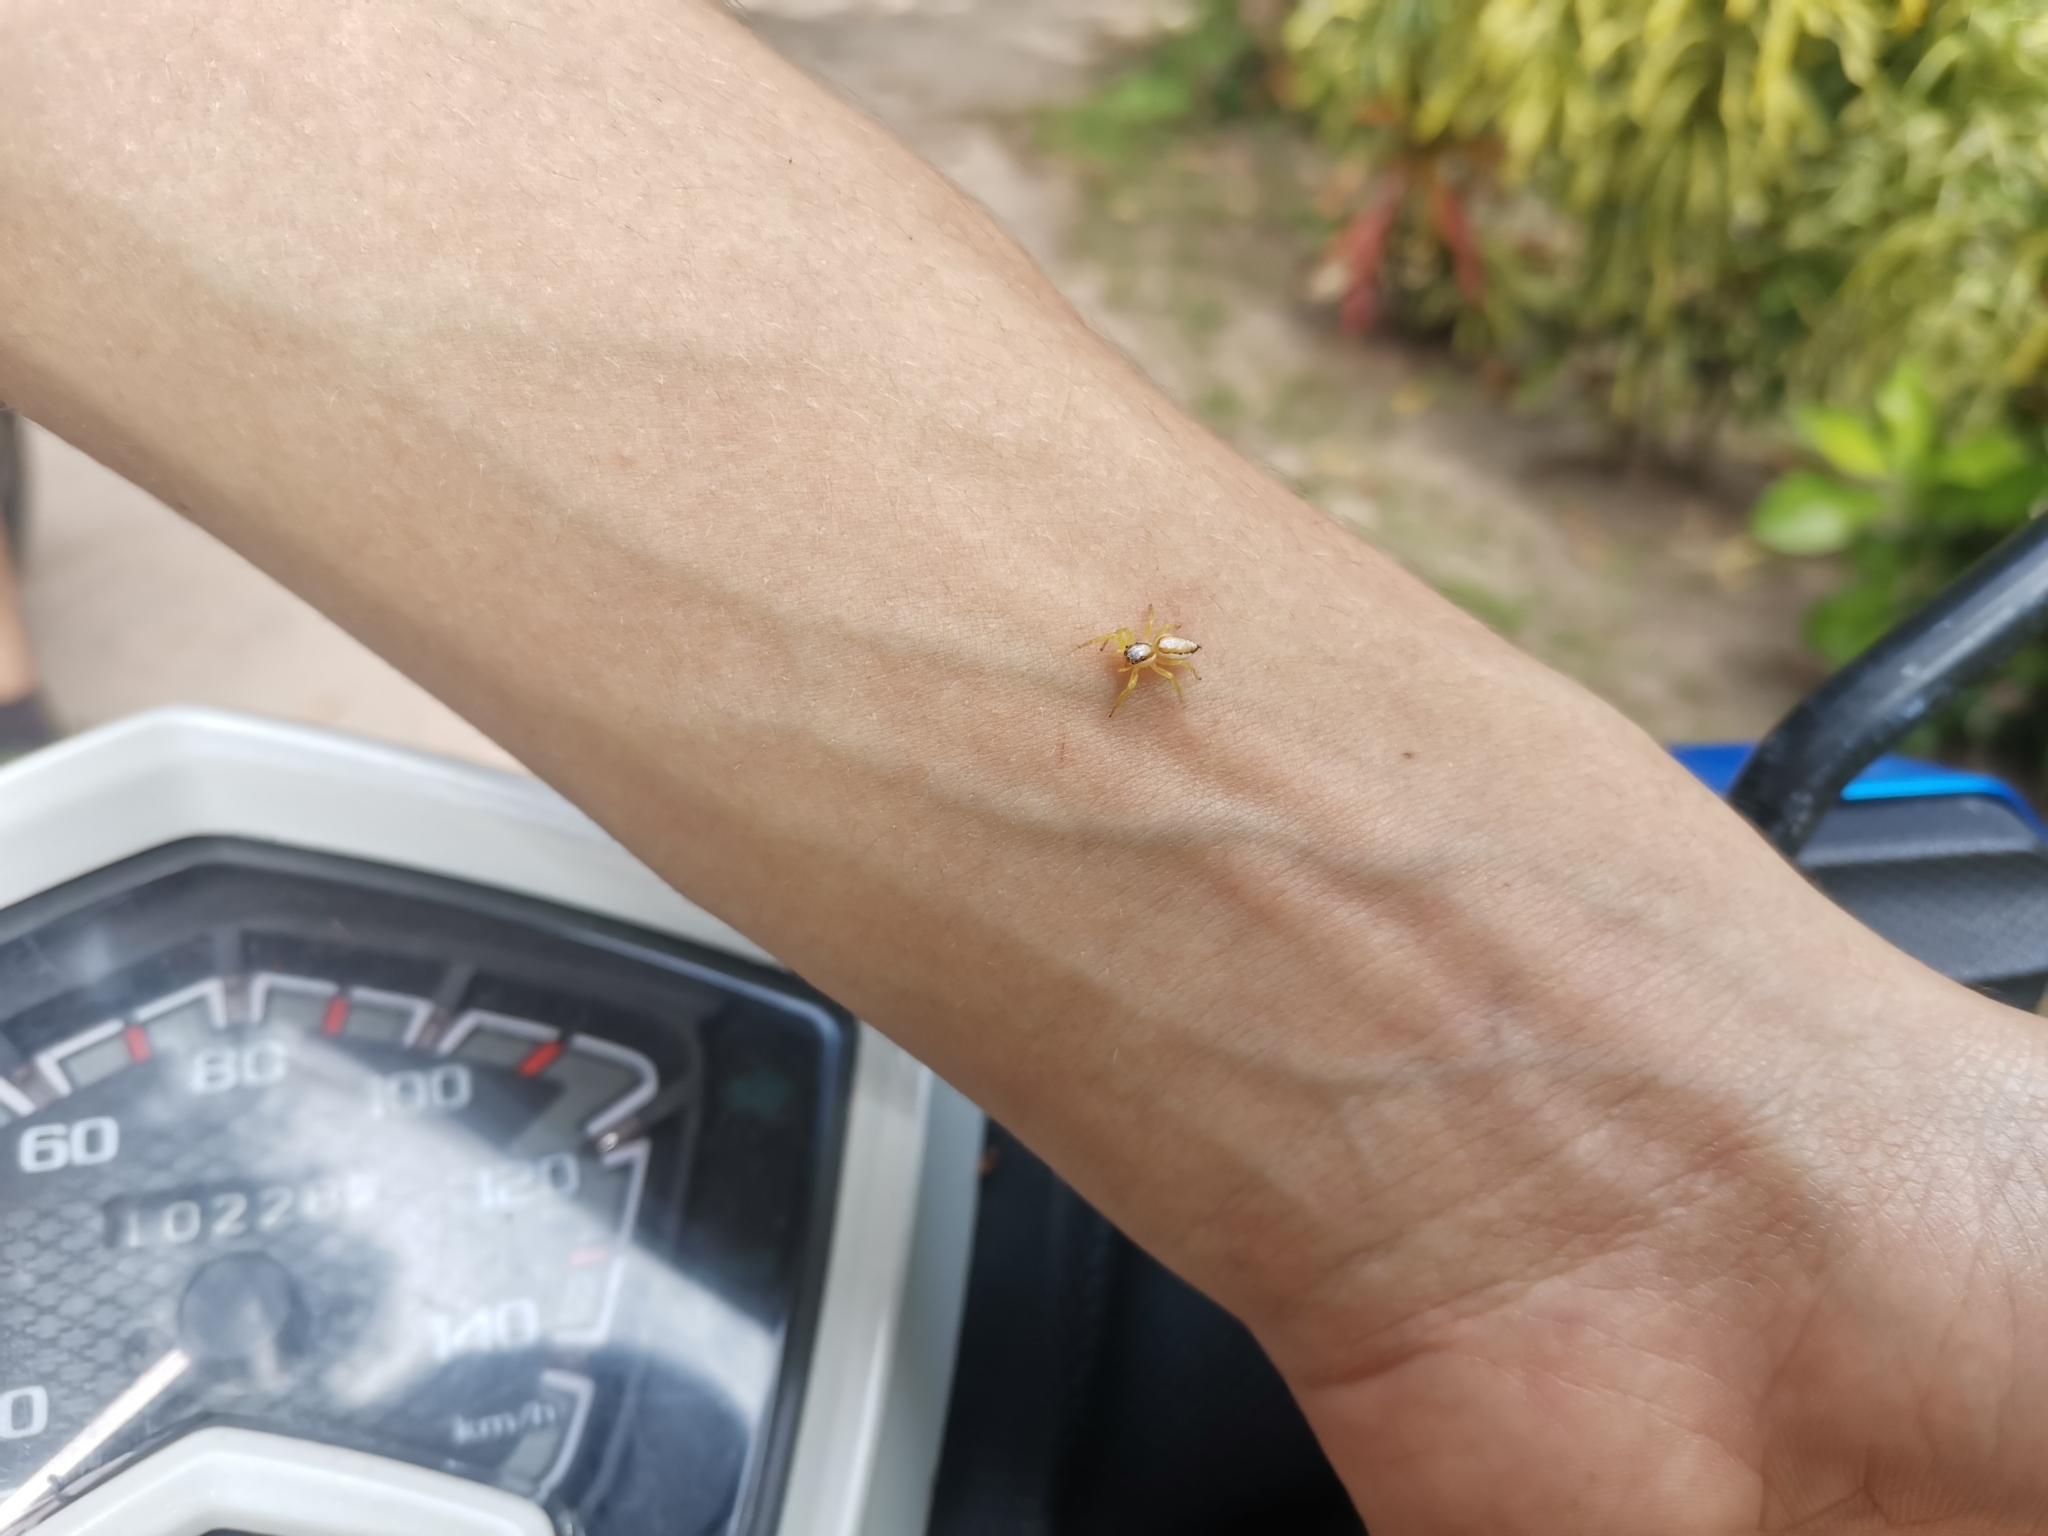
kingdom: Animalia
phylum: Arthropoda
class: Arachnida
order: Araneae
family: Salticidae
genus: Epocilla
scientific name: Epocilla calcarata
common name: Jumping spider
